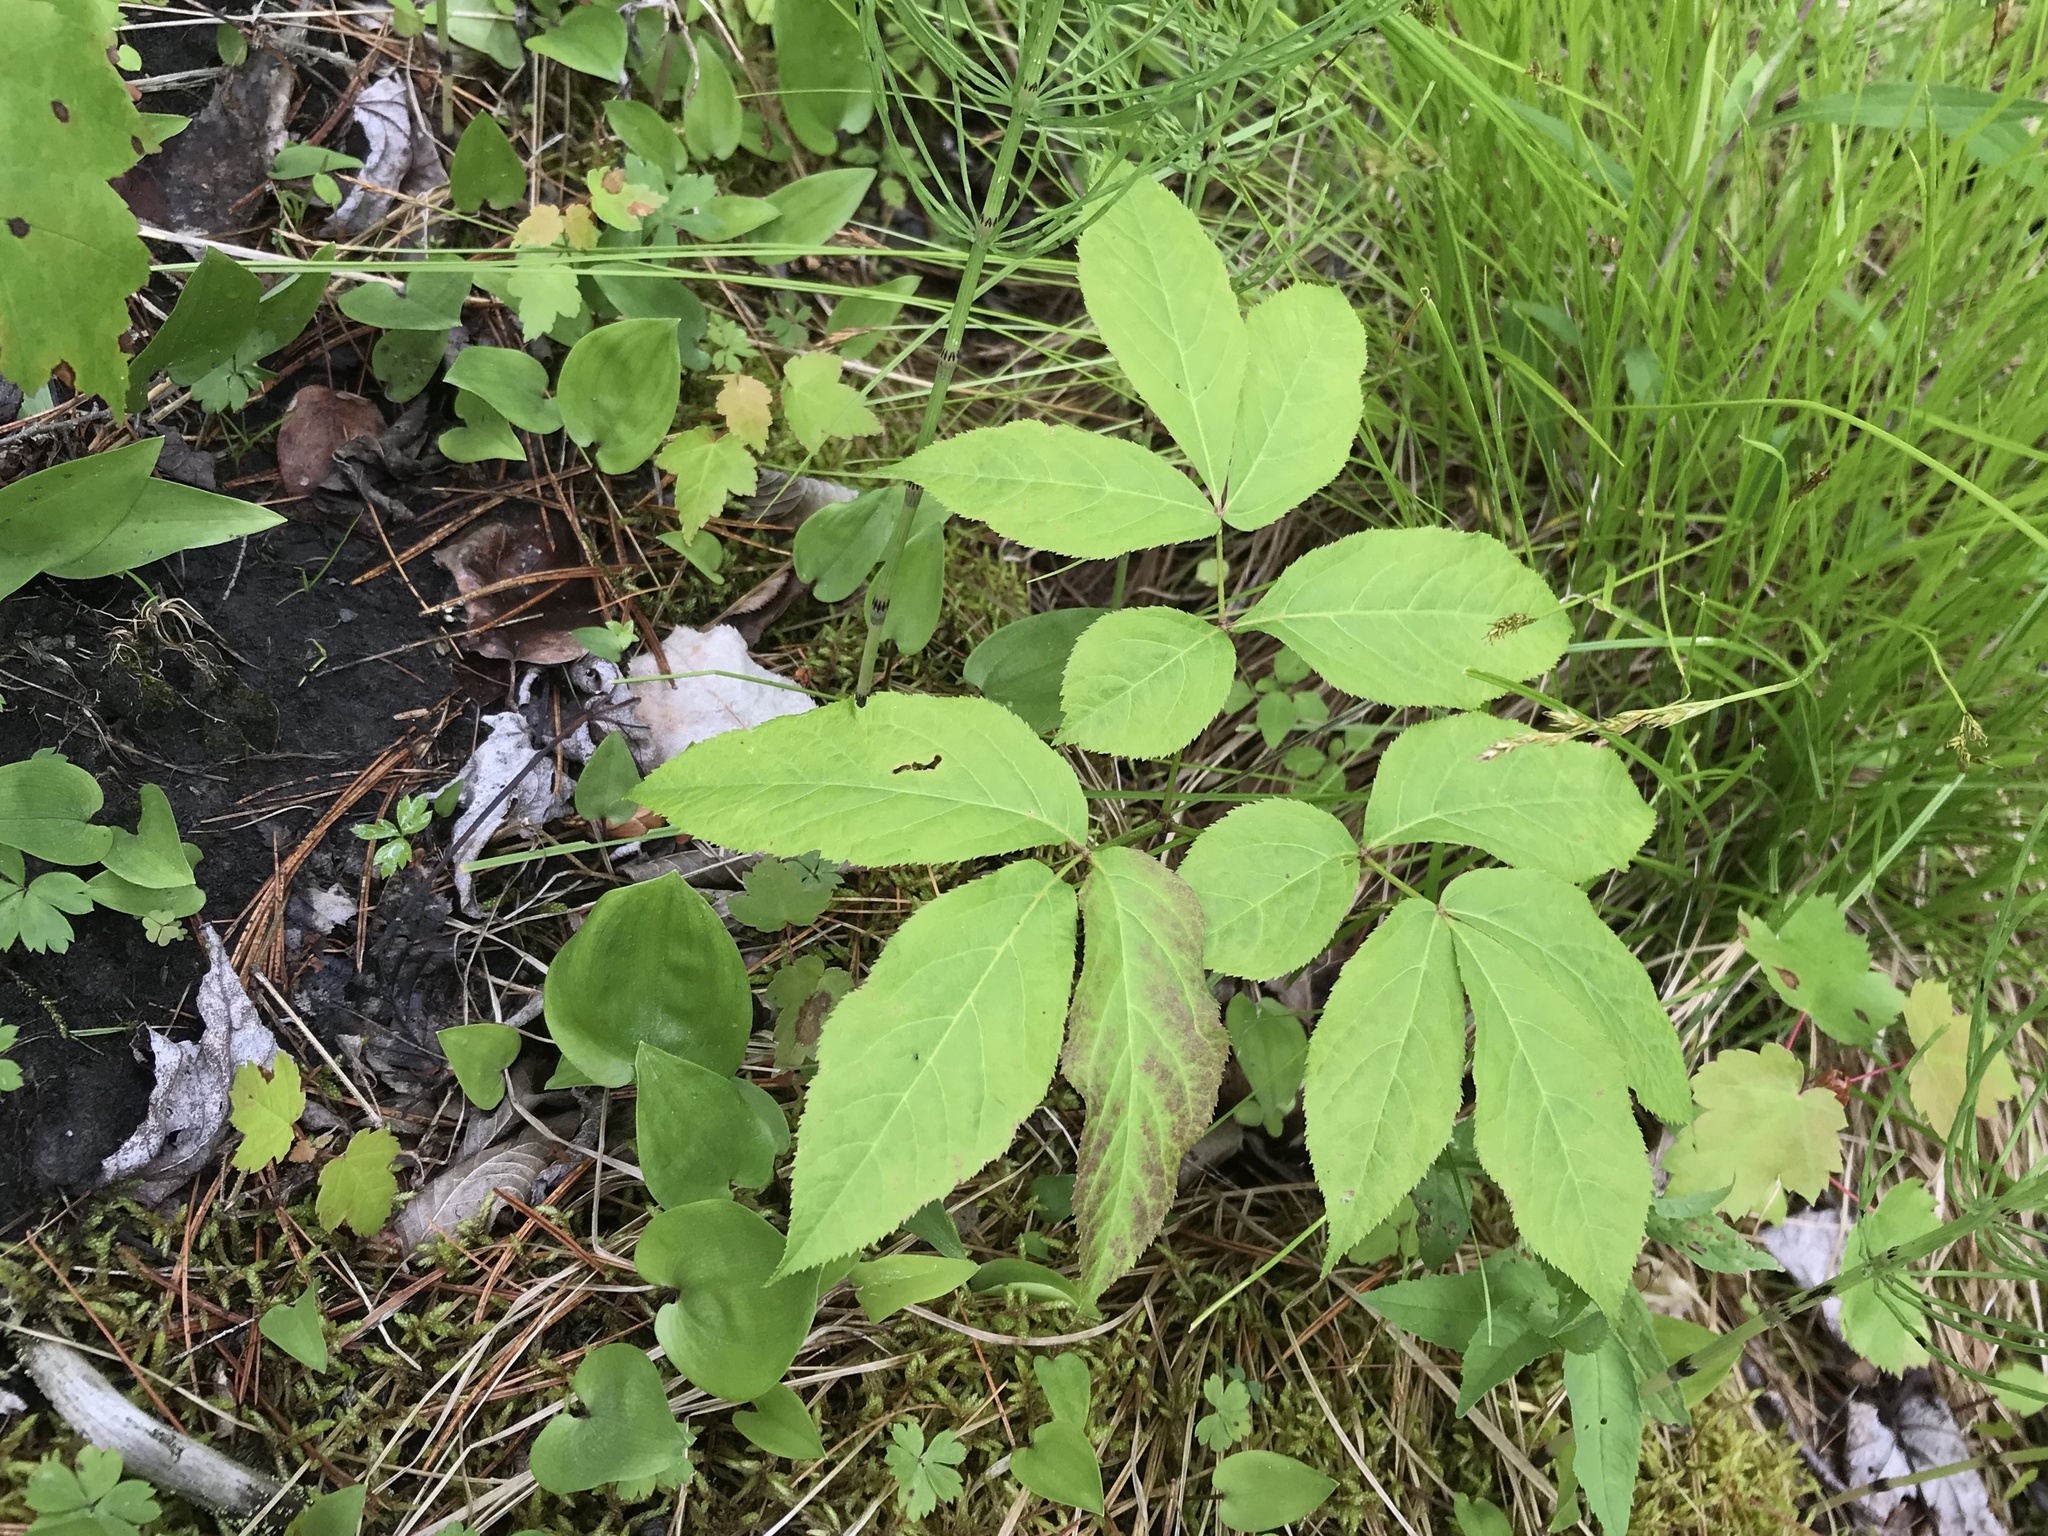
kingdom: Plantae
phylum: Tracheophyta
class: Magnoliopsida
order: Apiales
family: Araliaceae
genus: Aralia
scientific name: Aralia nudicaulis
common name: Wild sarsaparilla
